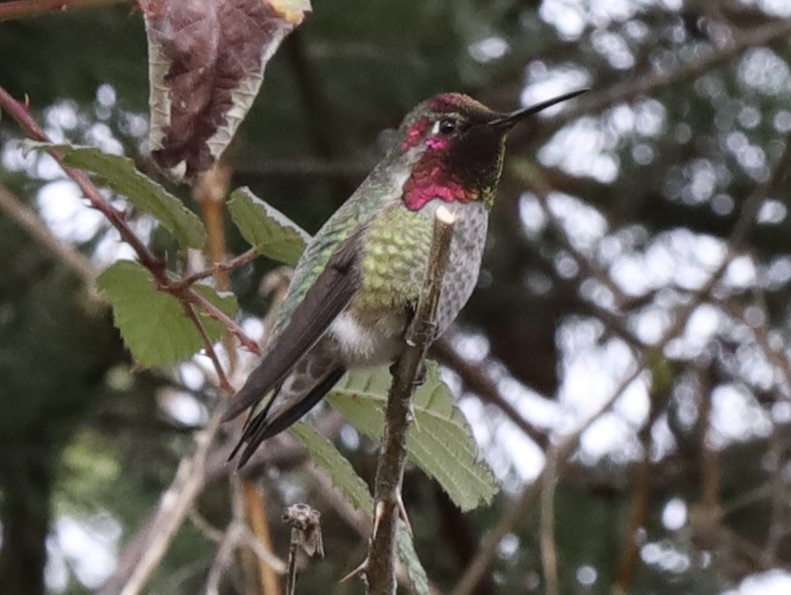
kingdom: Animalia
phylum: Chordata
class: Aves
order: Apodiformes
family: Trochilidae
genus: Calypte
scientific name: Calypte anna
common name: Anna's hummingbird
